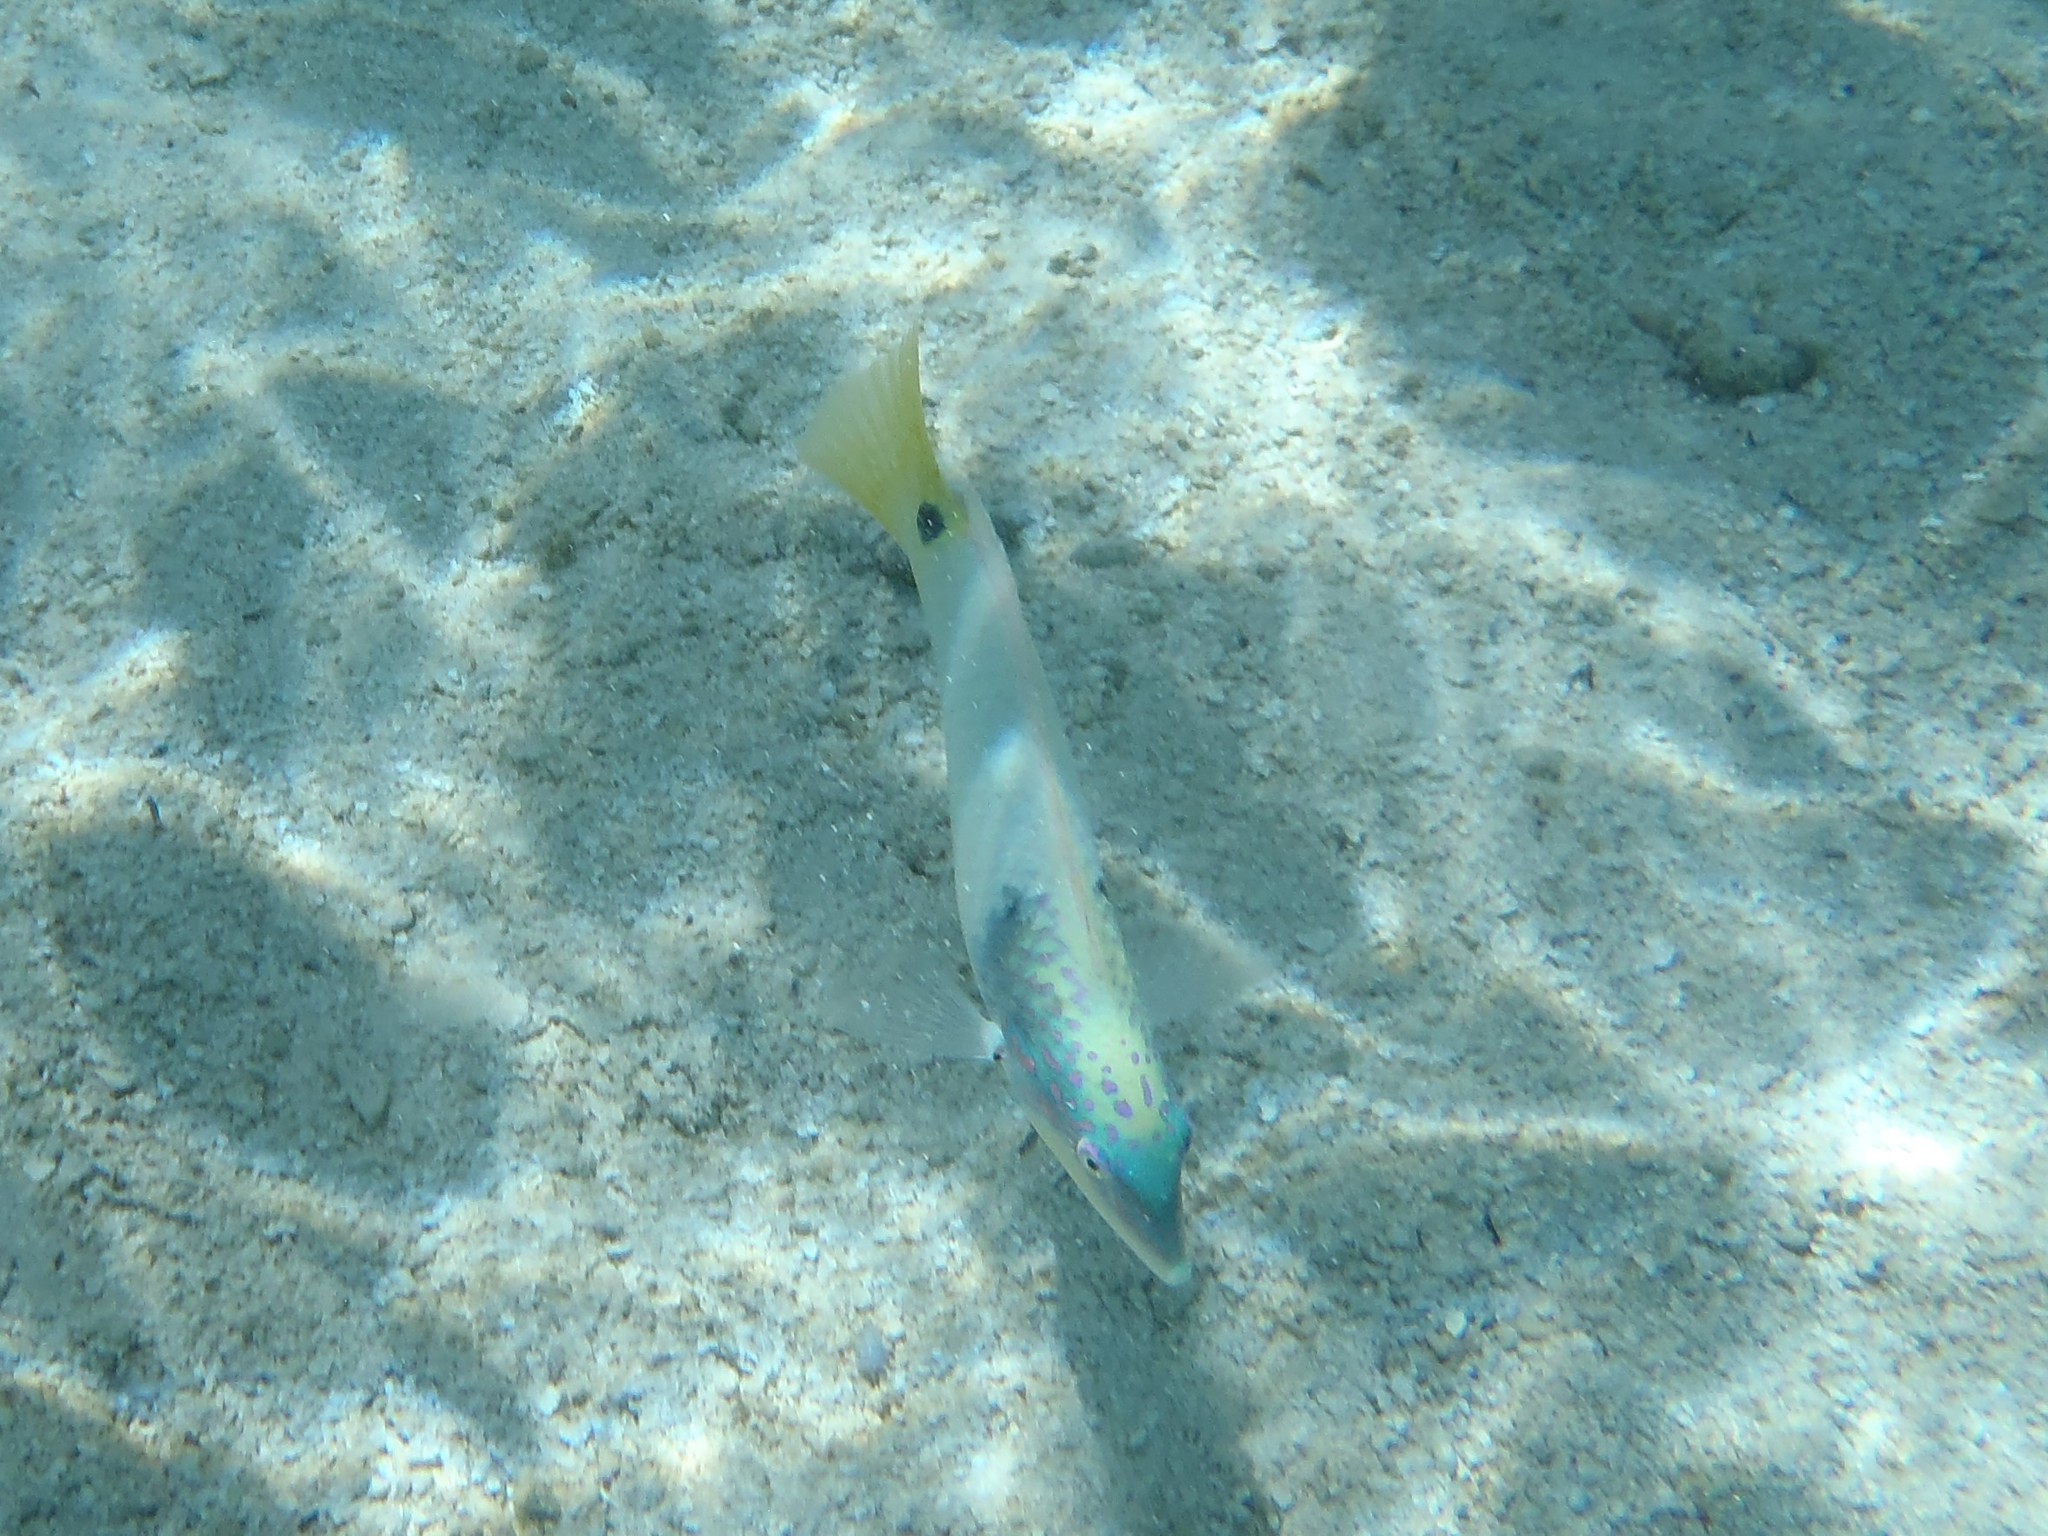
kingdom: Animalia
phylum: Chordata
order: Perciformes
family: Labridae
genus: Halichoeres
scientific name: Halichoeres trimaculatus
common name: Three-spot wrasse
